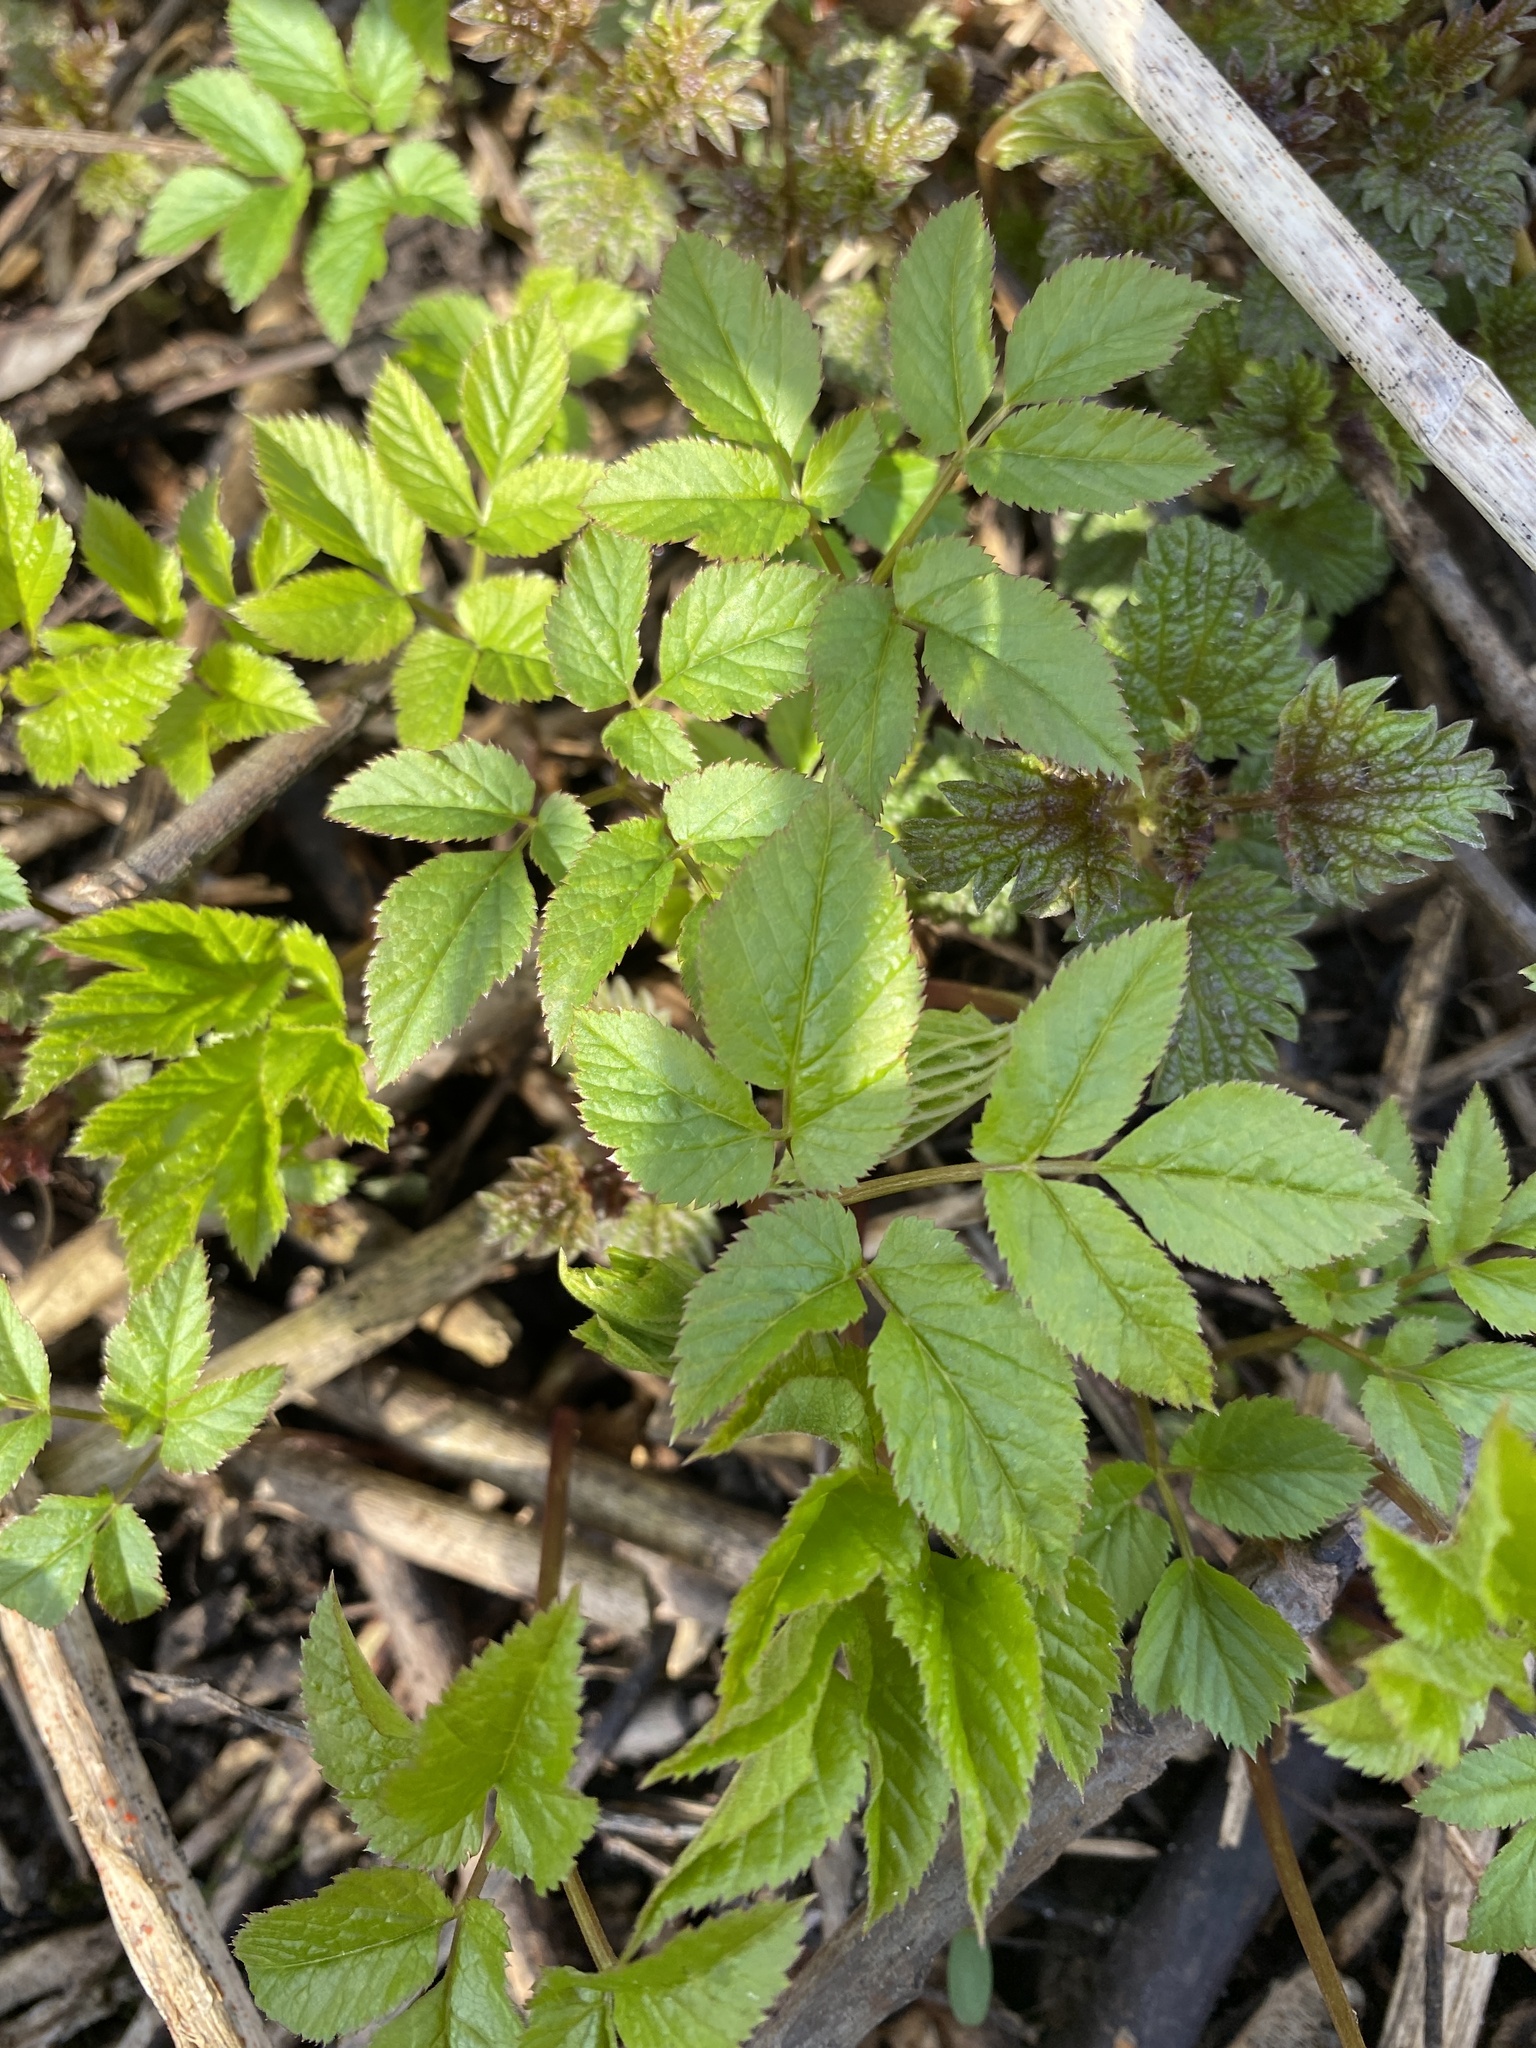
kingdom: Plantae
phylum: Tracheophyta
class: Magnoliopsida
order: Apiales
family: Apiaceae
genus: Aegopodium
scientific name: Aegopodium podagraria
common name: Ground-elder
